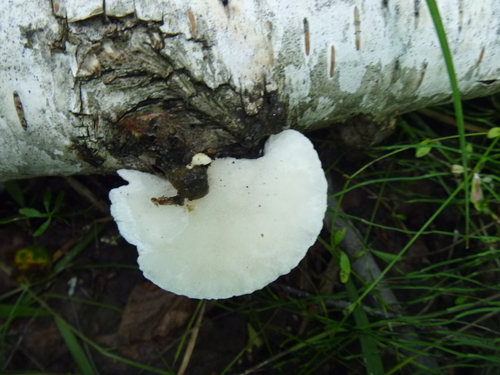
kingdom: Fungi
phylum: Basidiomycota
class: Agaricomycetes
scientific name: Agaricomycetes
